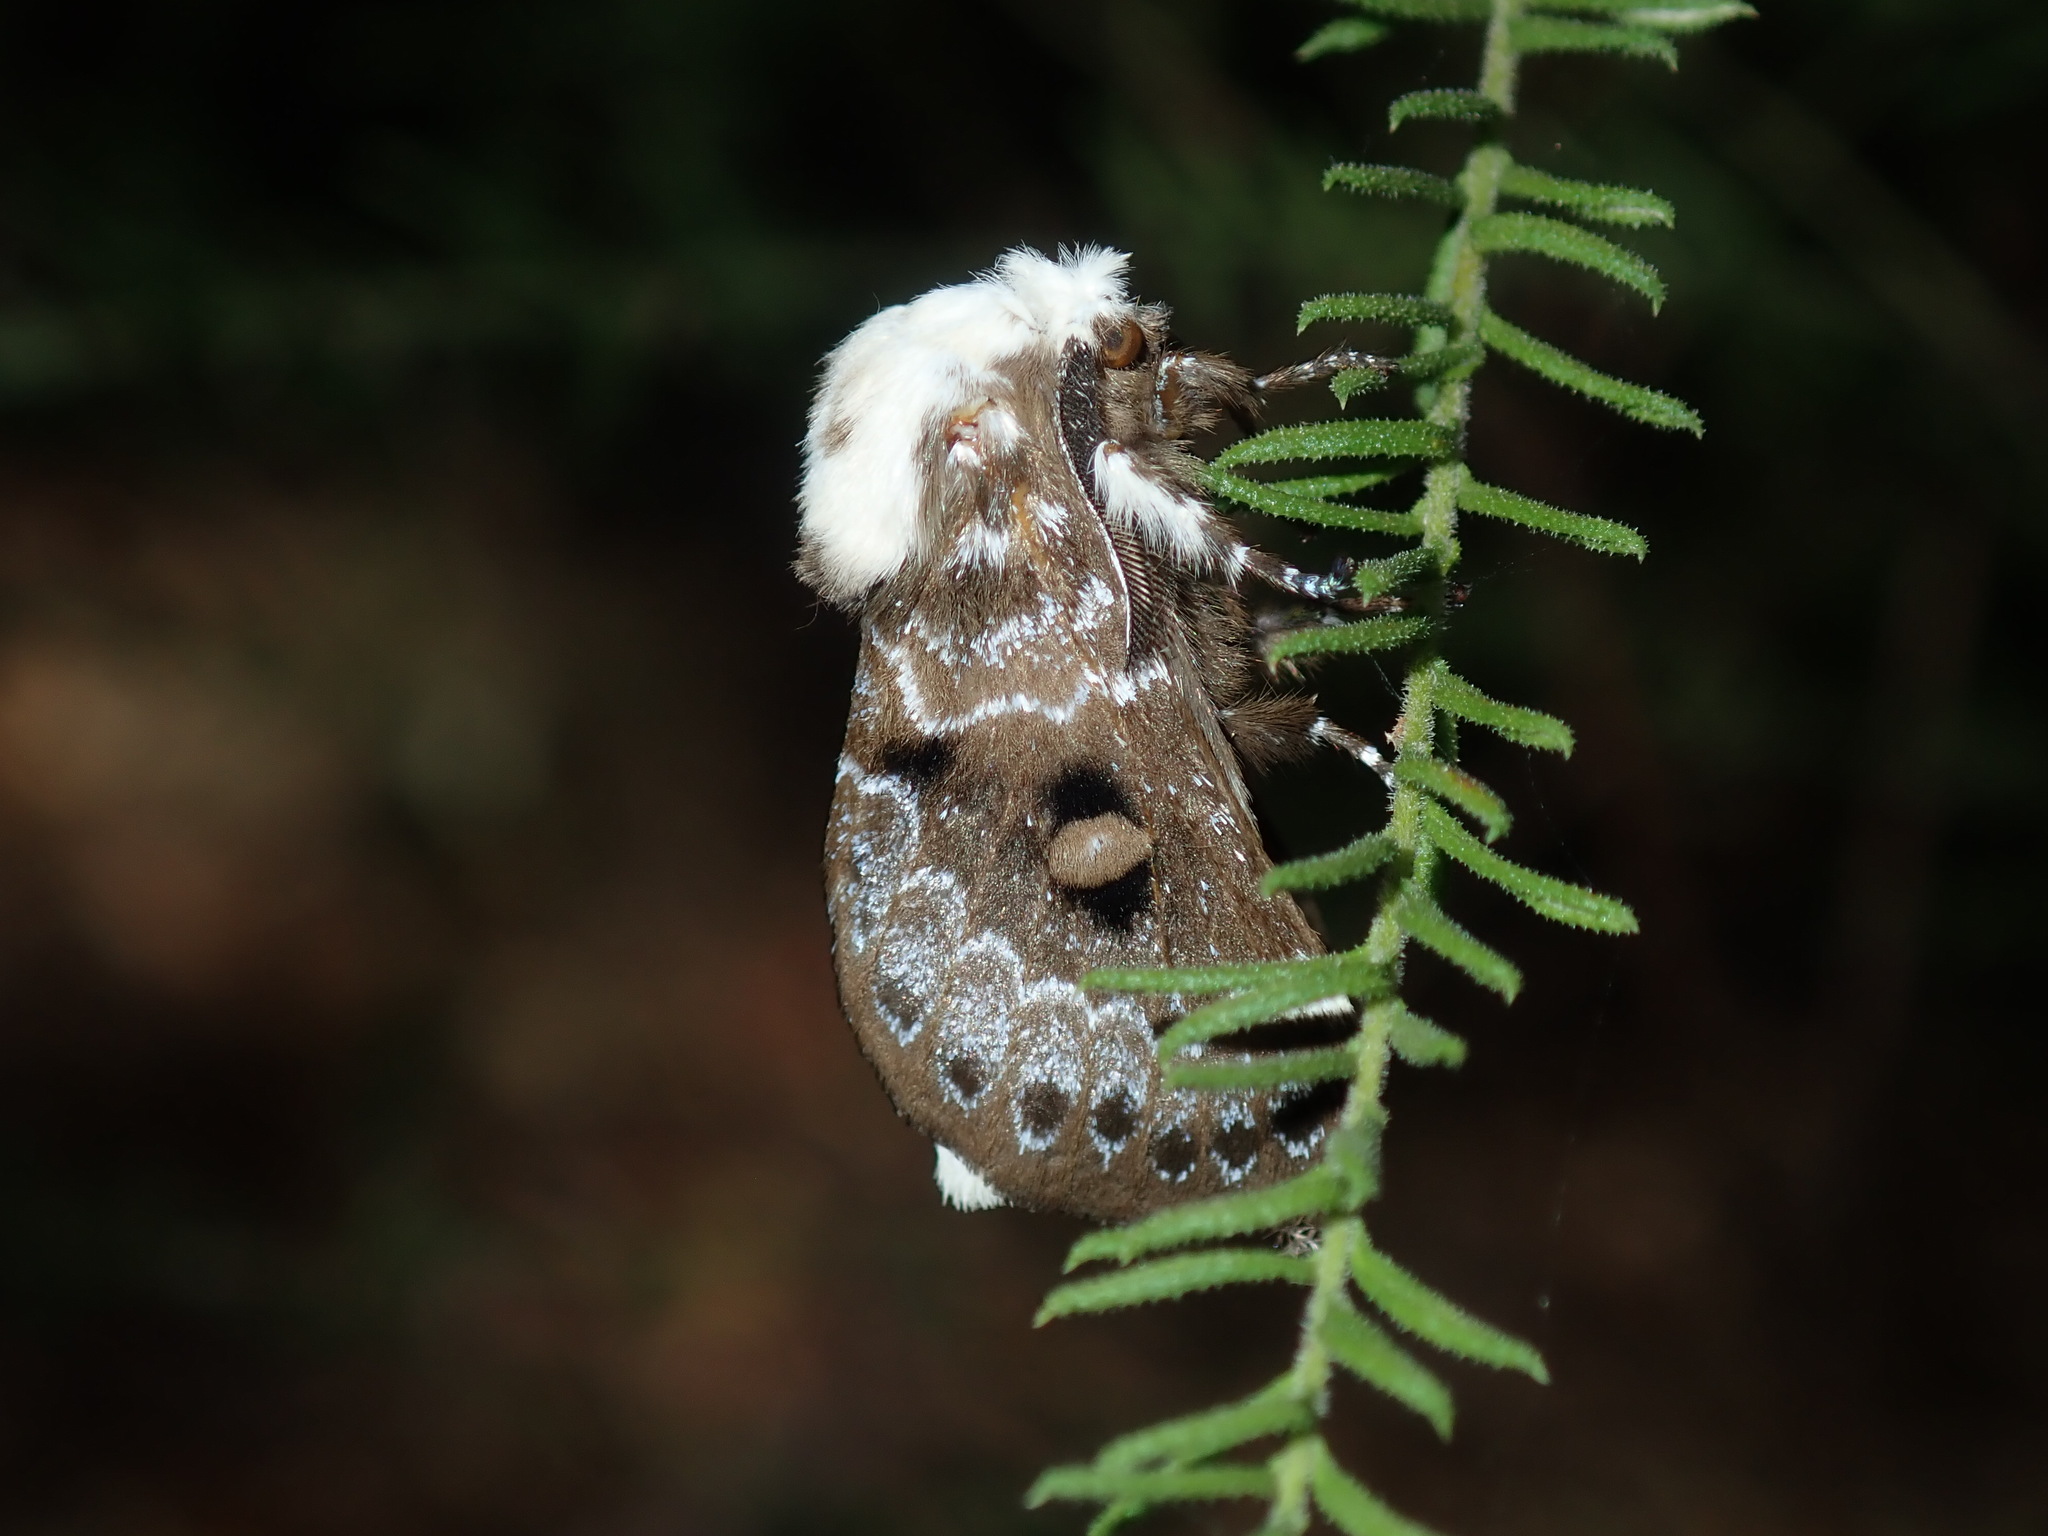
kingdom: Animalia
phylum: Arthropoda
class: Insecta
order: Lepidoptera
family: Lasiocampidae
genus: Genduara
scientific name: Genduara punctigera
